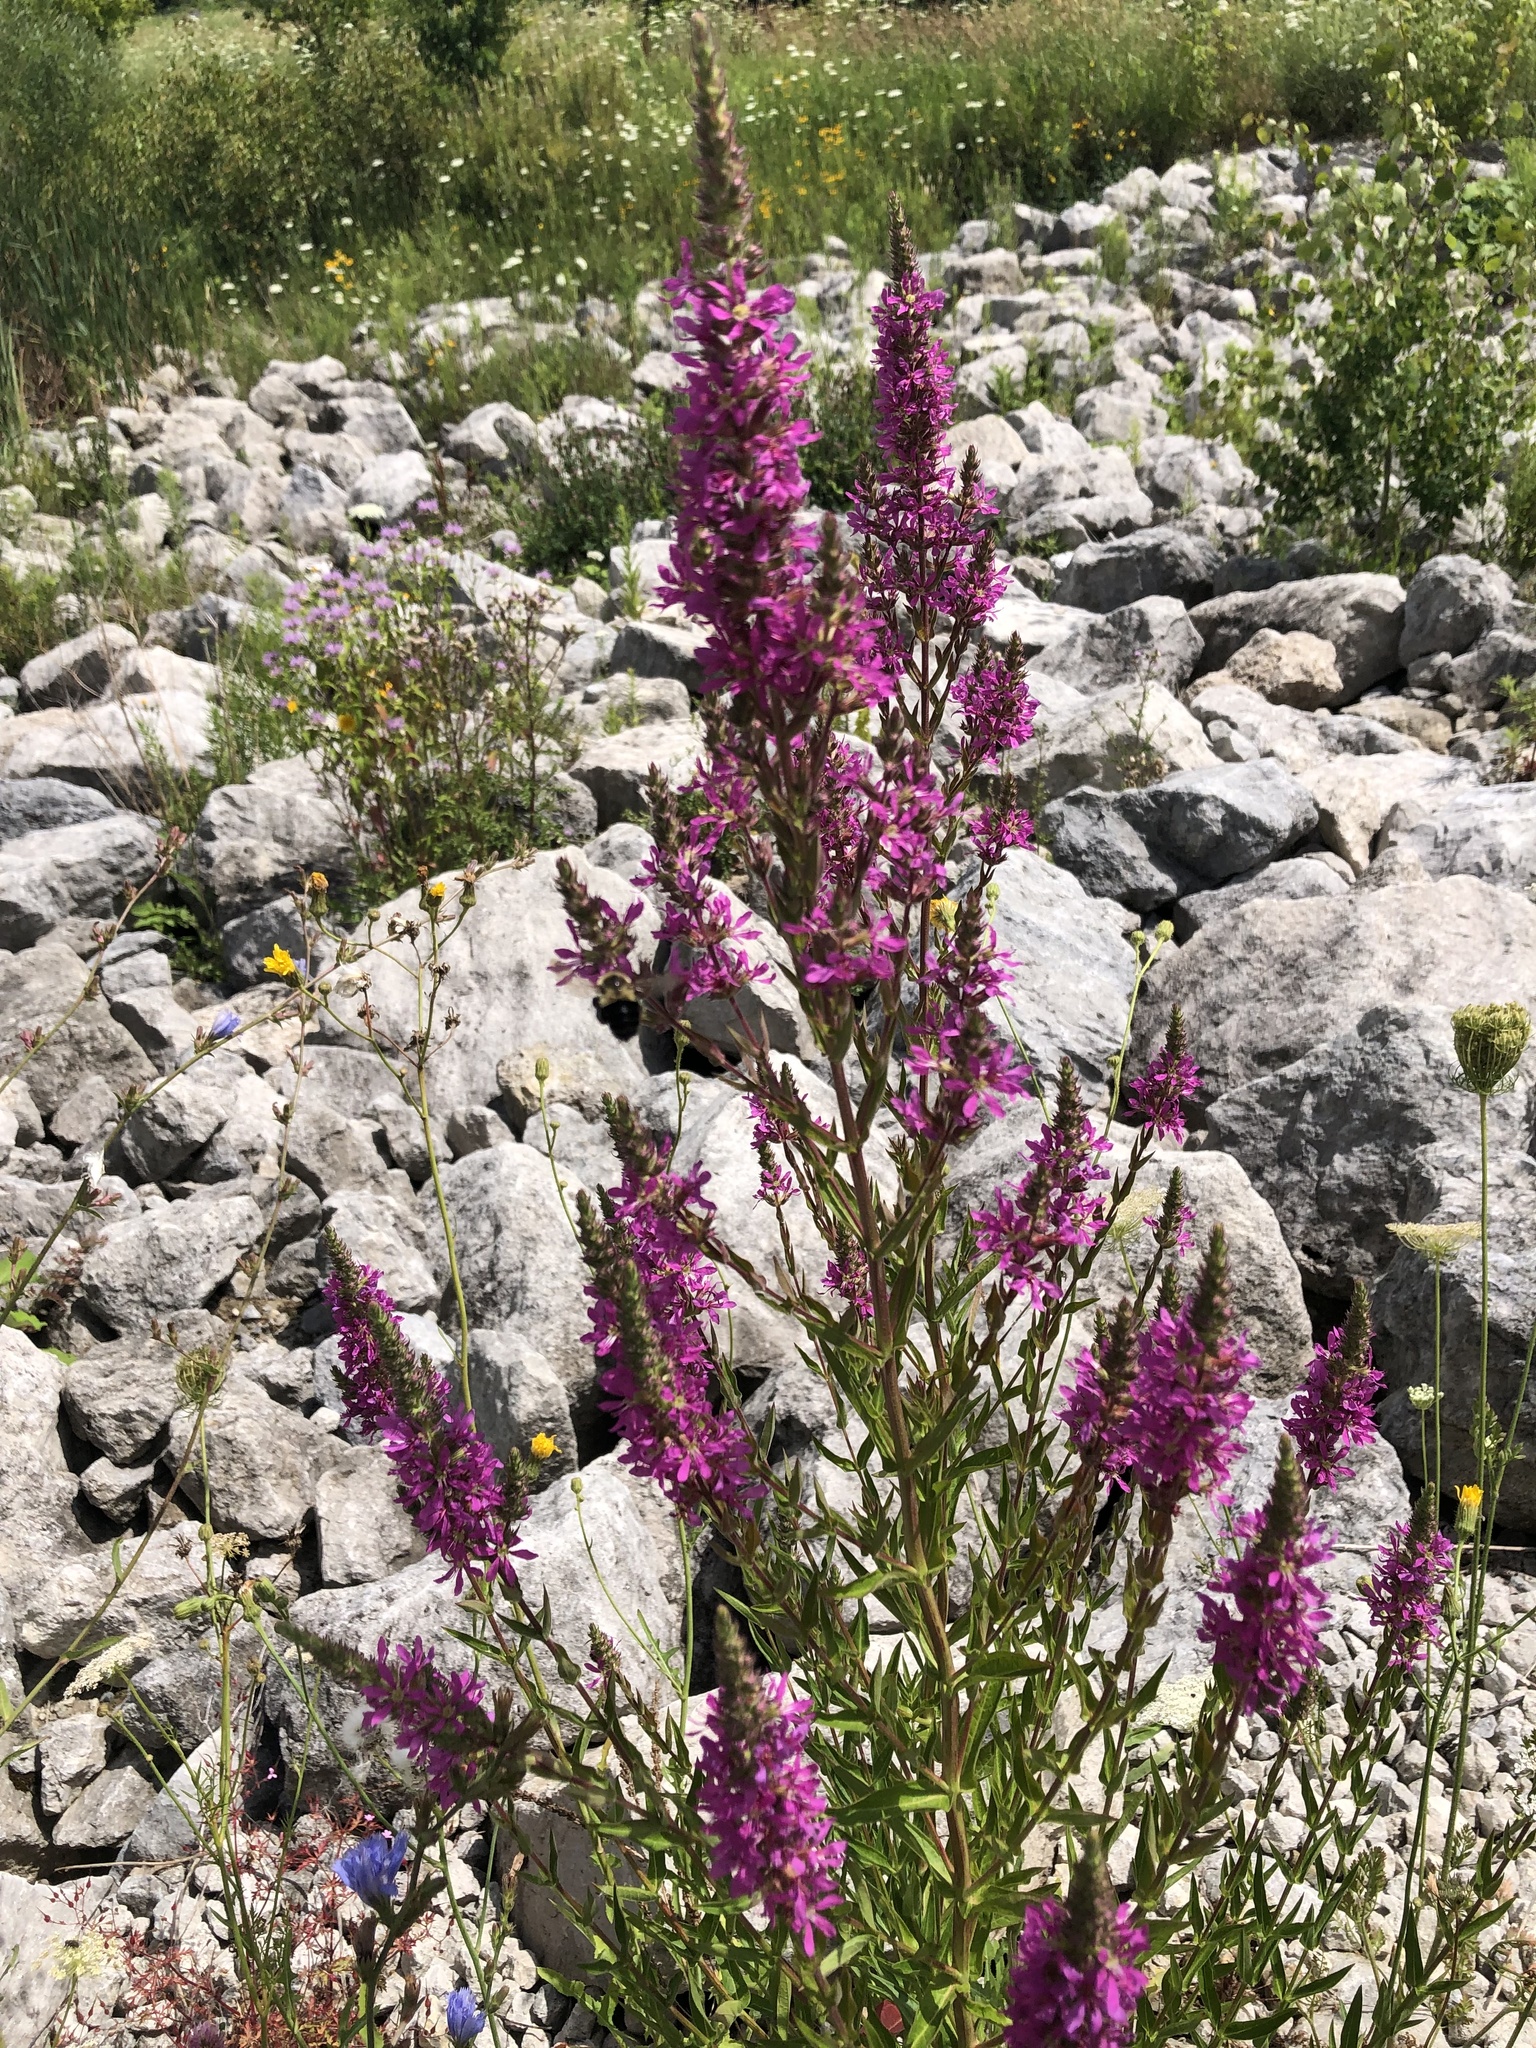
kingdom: Plantae
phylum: Tracheophyta
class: Magnoliopsida
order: Myrtales
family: Lythraceae
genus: Lythrum
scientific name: Lythrum salicaria
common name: Purple loosestrife
